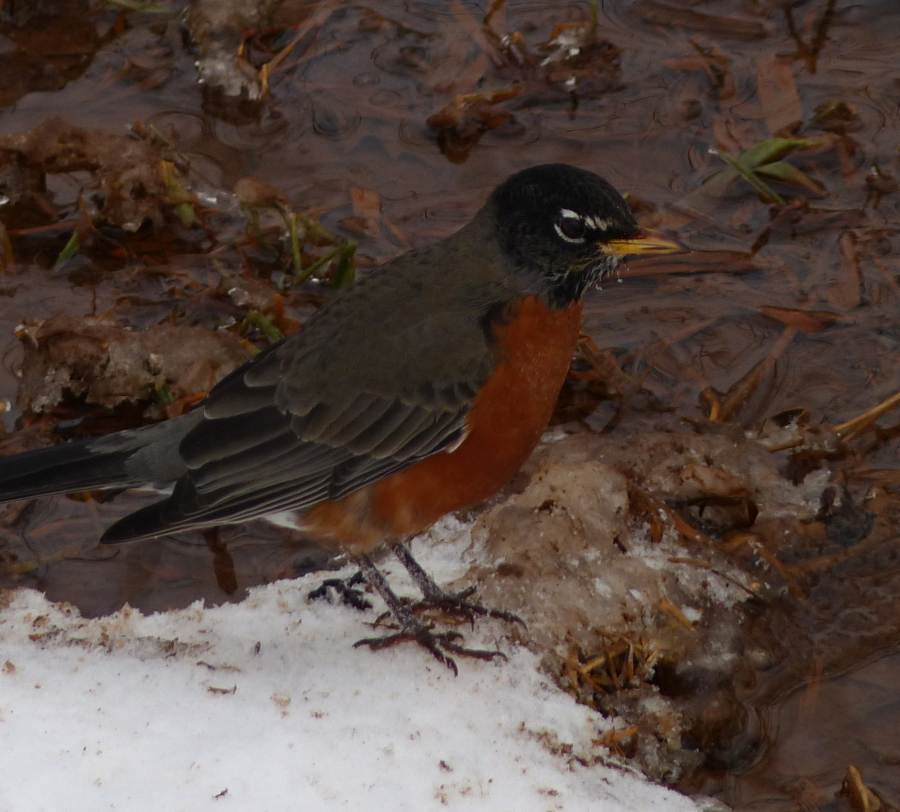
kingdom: Animalia
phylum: Chordata
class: Aves
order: Passeriformes
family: Turdidae
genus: Turdus
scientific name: Turdus migratorius
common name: American robin
